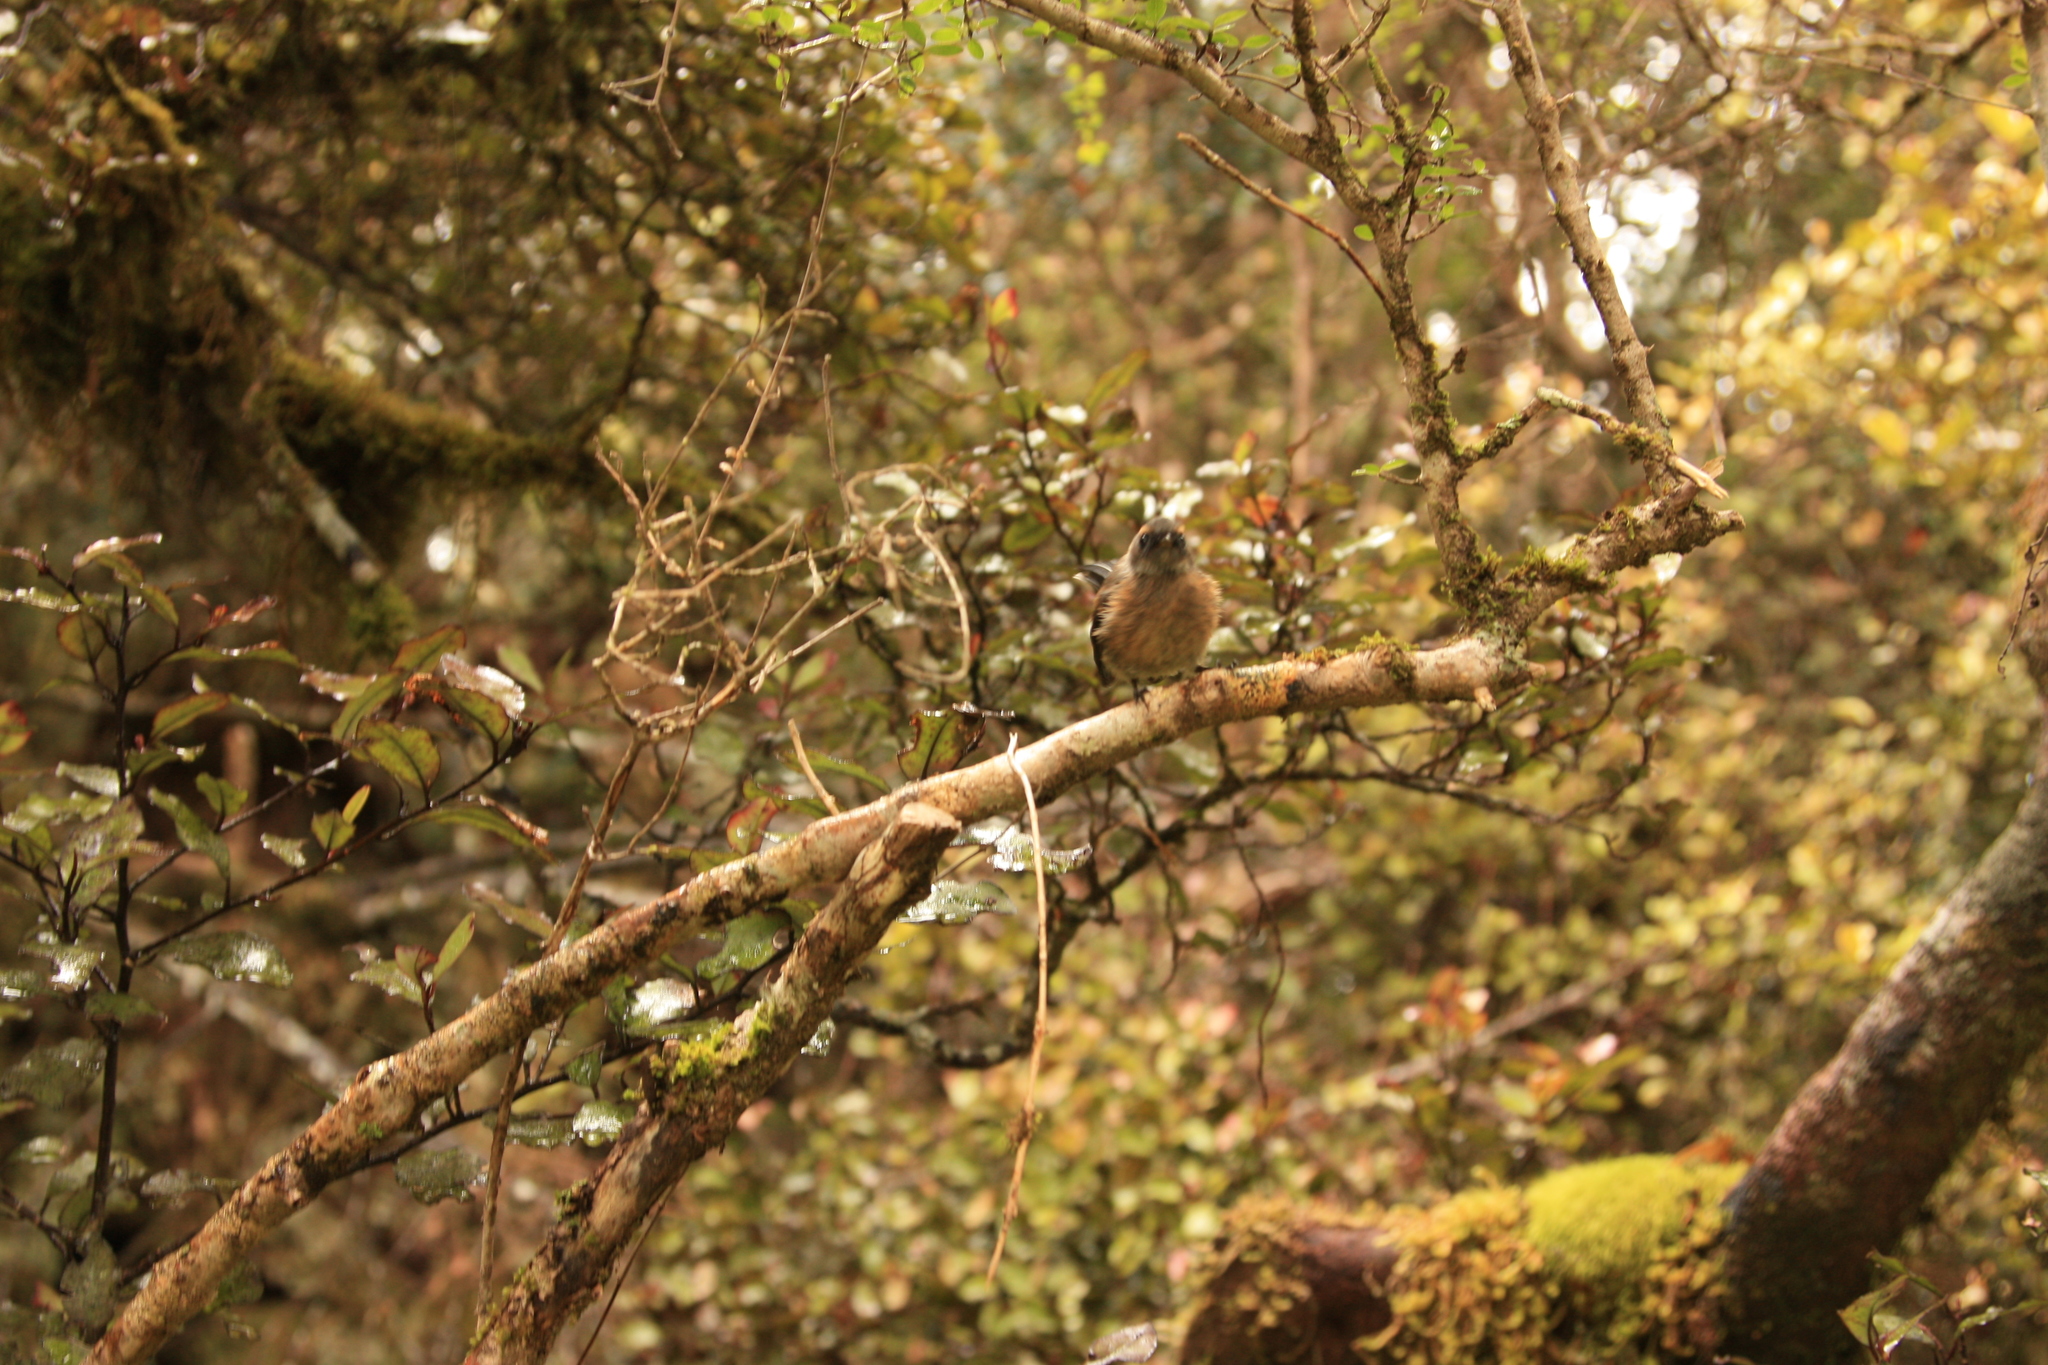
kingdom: Animalia
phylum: Chordata
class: Aves
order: Passeriformes
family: Acanthizidae
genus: Finschia
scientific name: Finschia novaeseelandiae
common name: Pipipi
